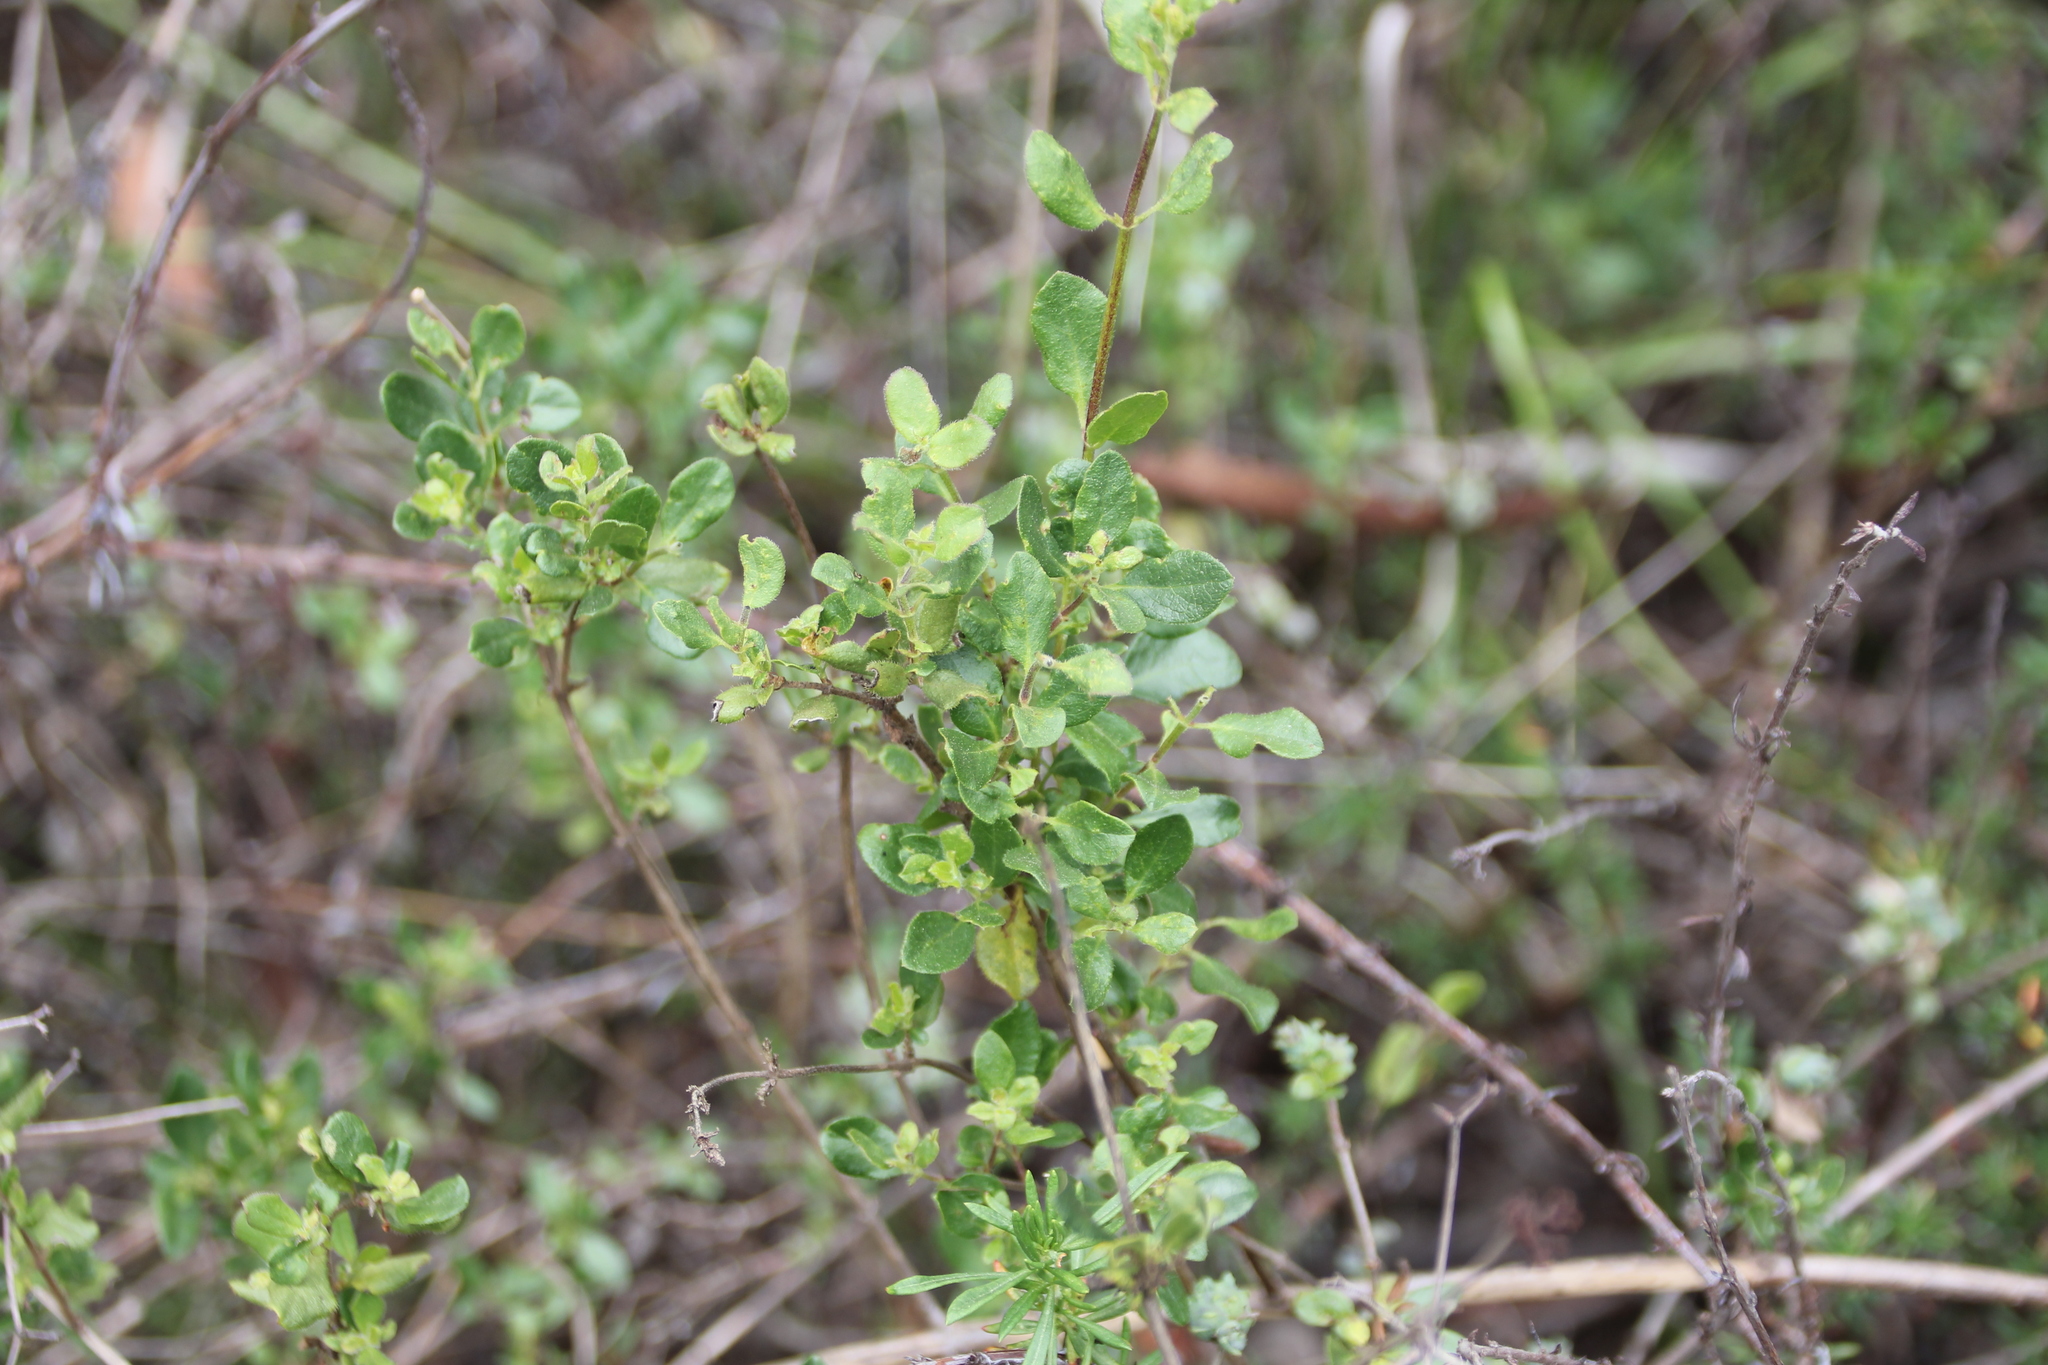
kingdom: Plantae
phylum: Tracheophyta
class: Magnoliopsida
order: Dipsacales
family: Caprifoliaceae
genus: Lonicera
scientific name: Lonicera subspicata
